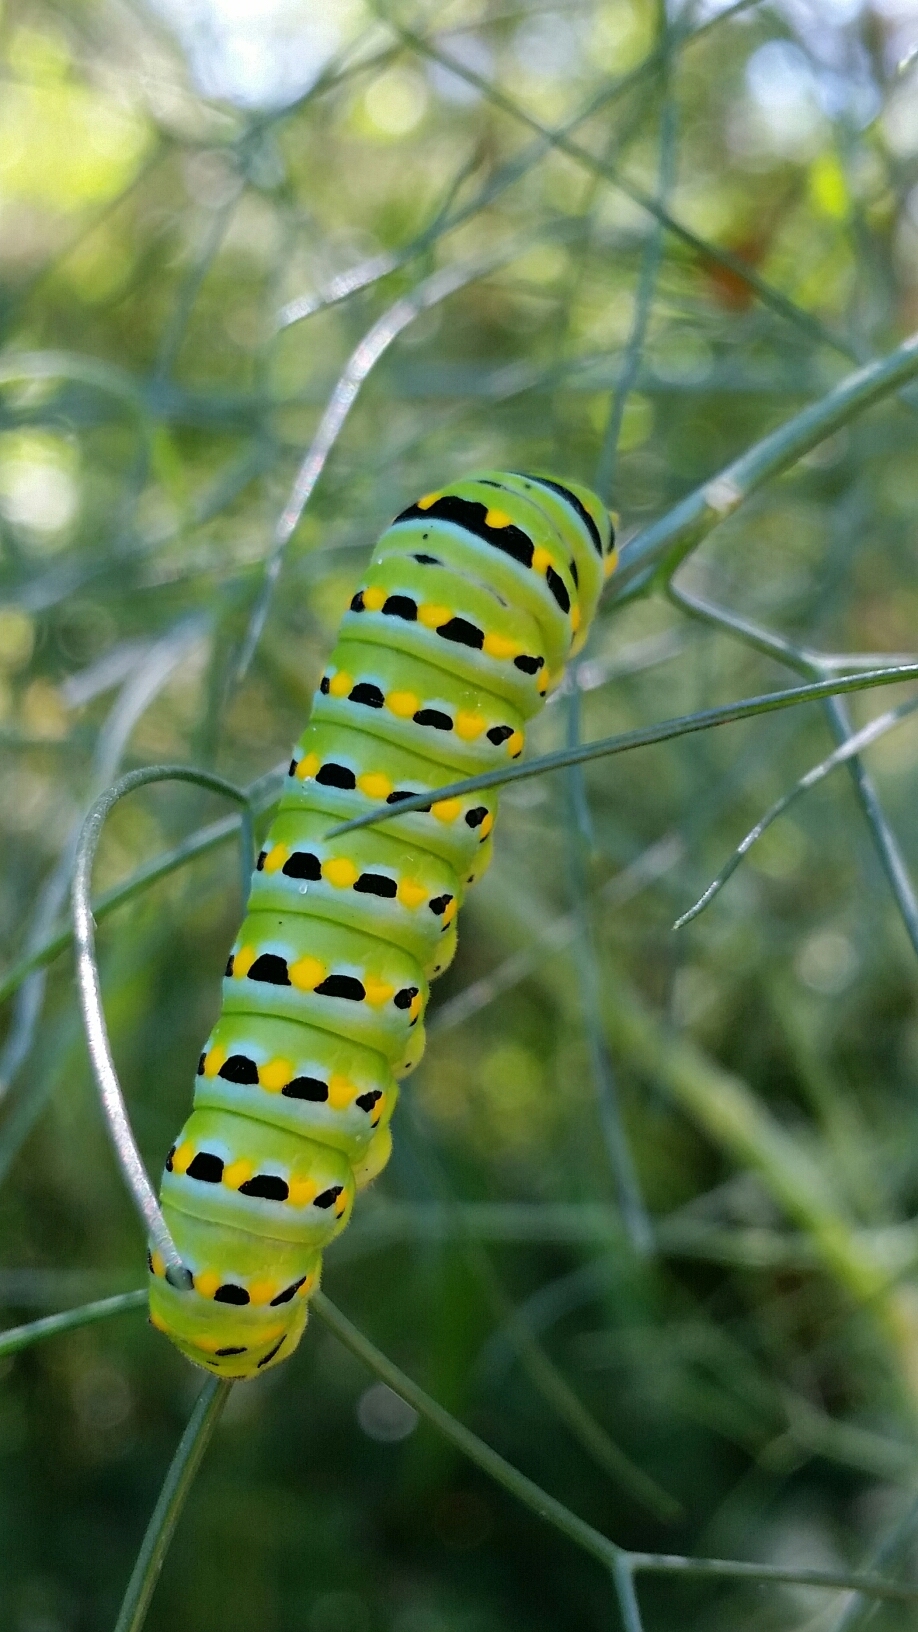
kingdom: Animalia
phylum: Arthropoda
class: Insecta
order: Lepidoptera
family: Papilionidae
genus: Papilio
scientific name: Papilio zelicaon
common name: Anise swallowtail
